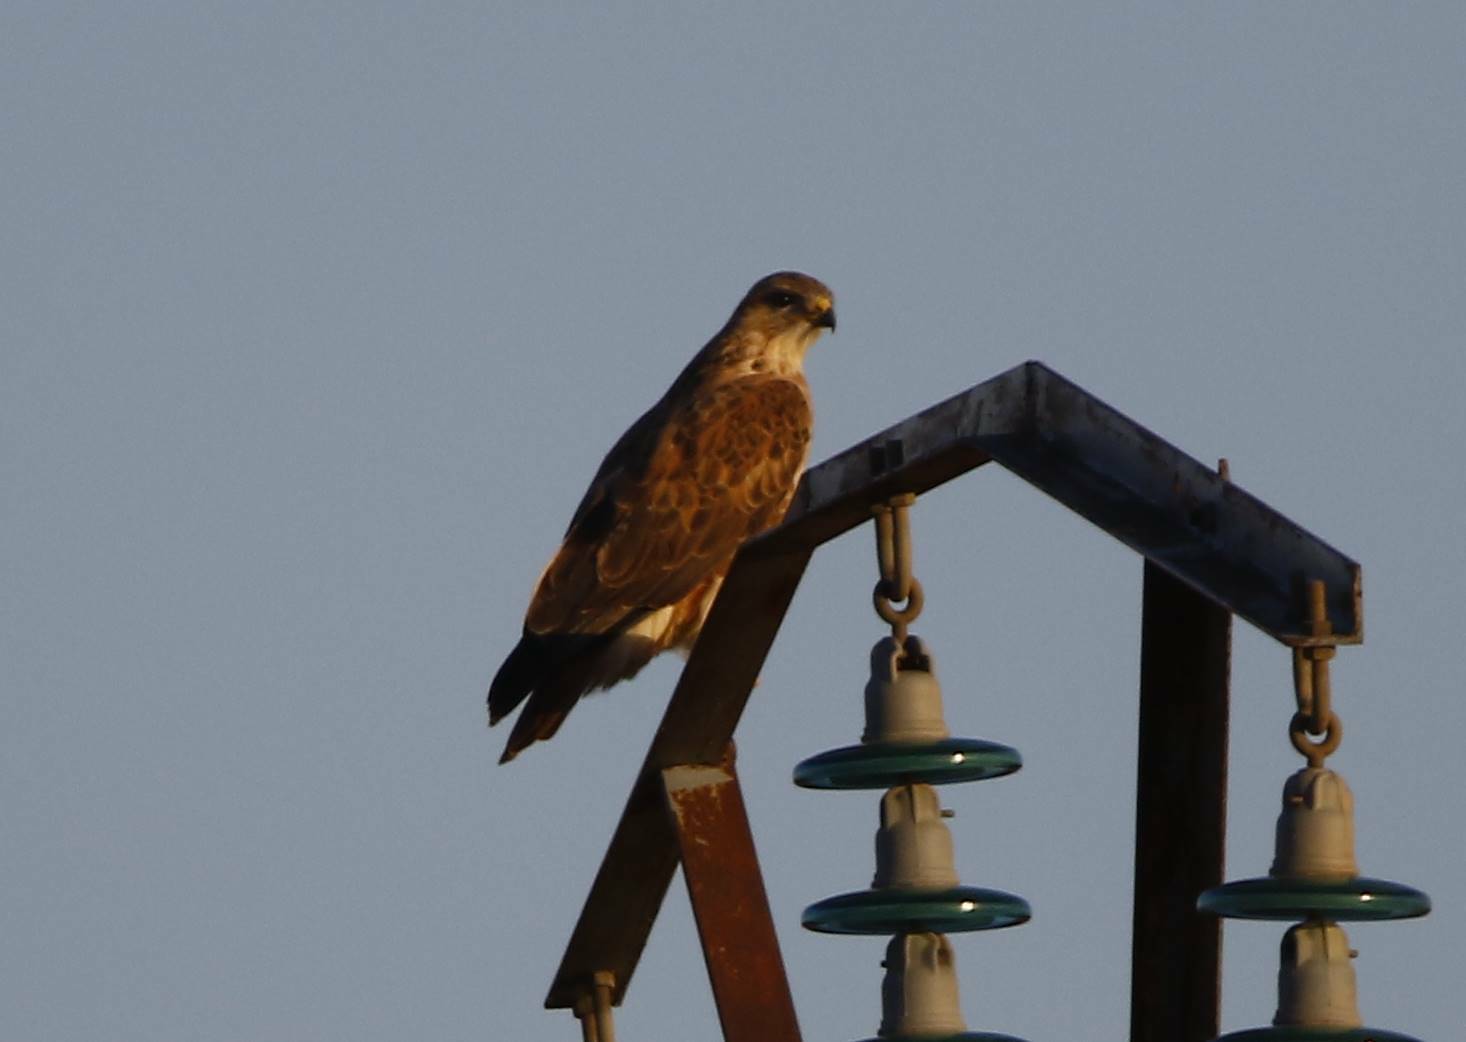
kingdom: Animalia
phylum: Chordata
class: Aves
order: Accipitriformes
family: Accipitridae
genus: Buteo
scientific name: Buteo rufinus
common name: Long-legged buzzard
